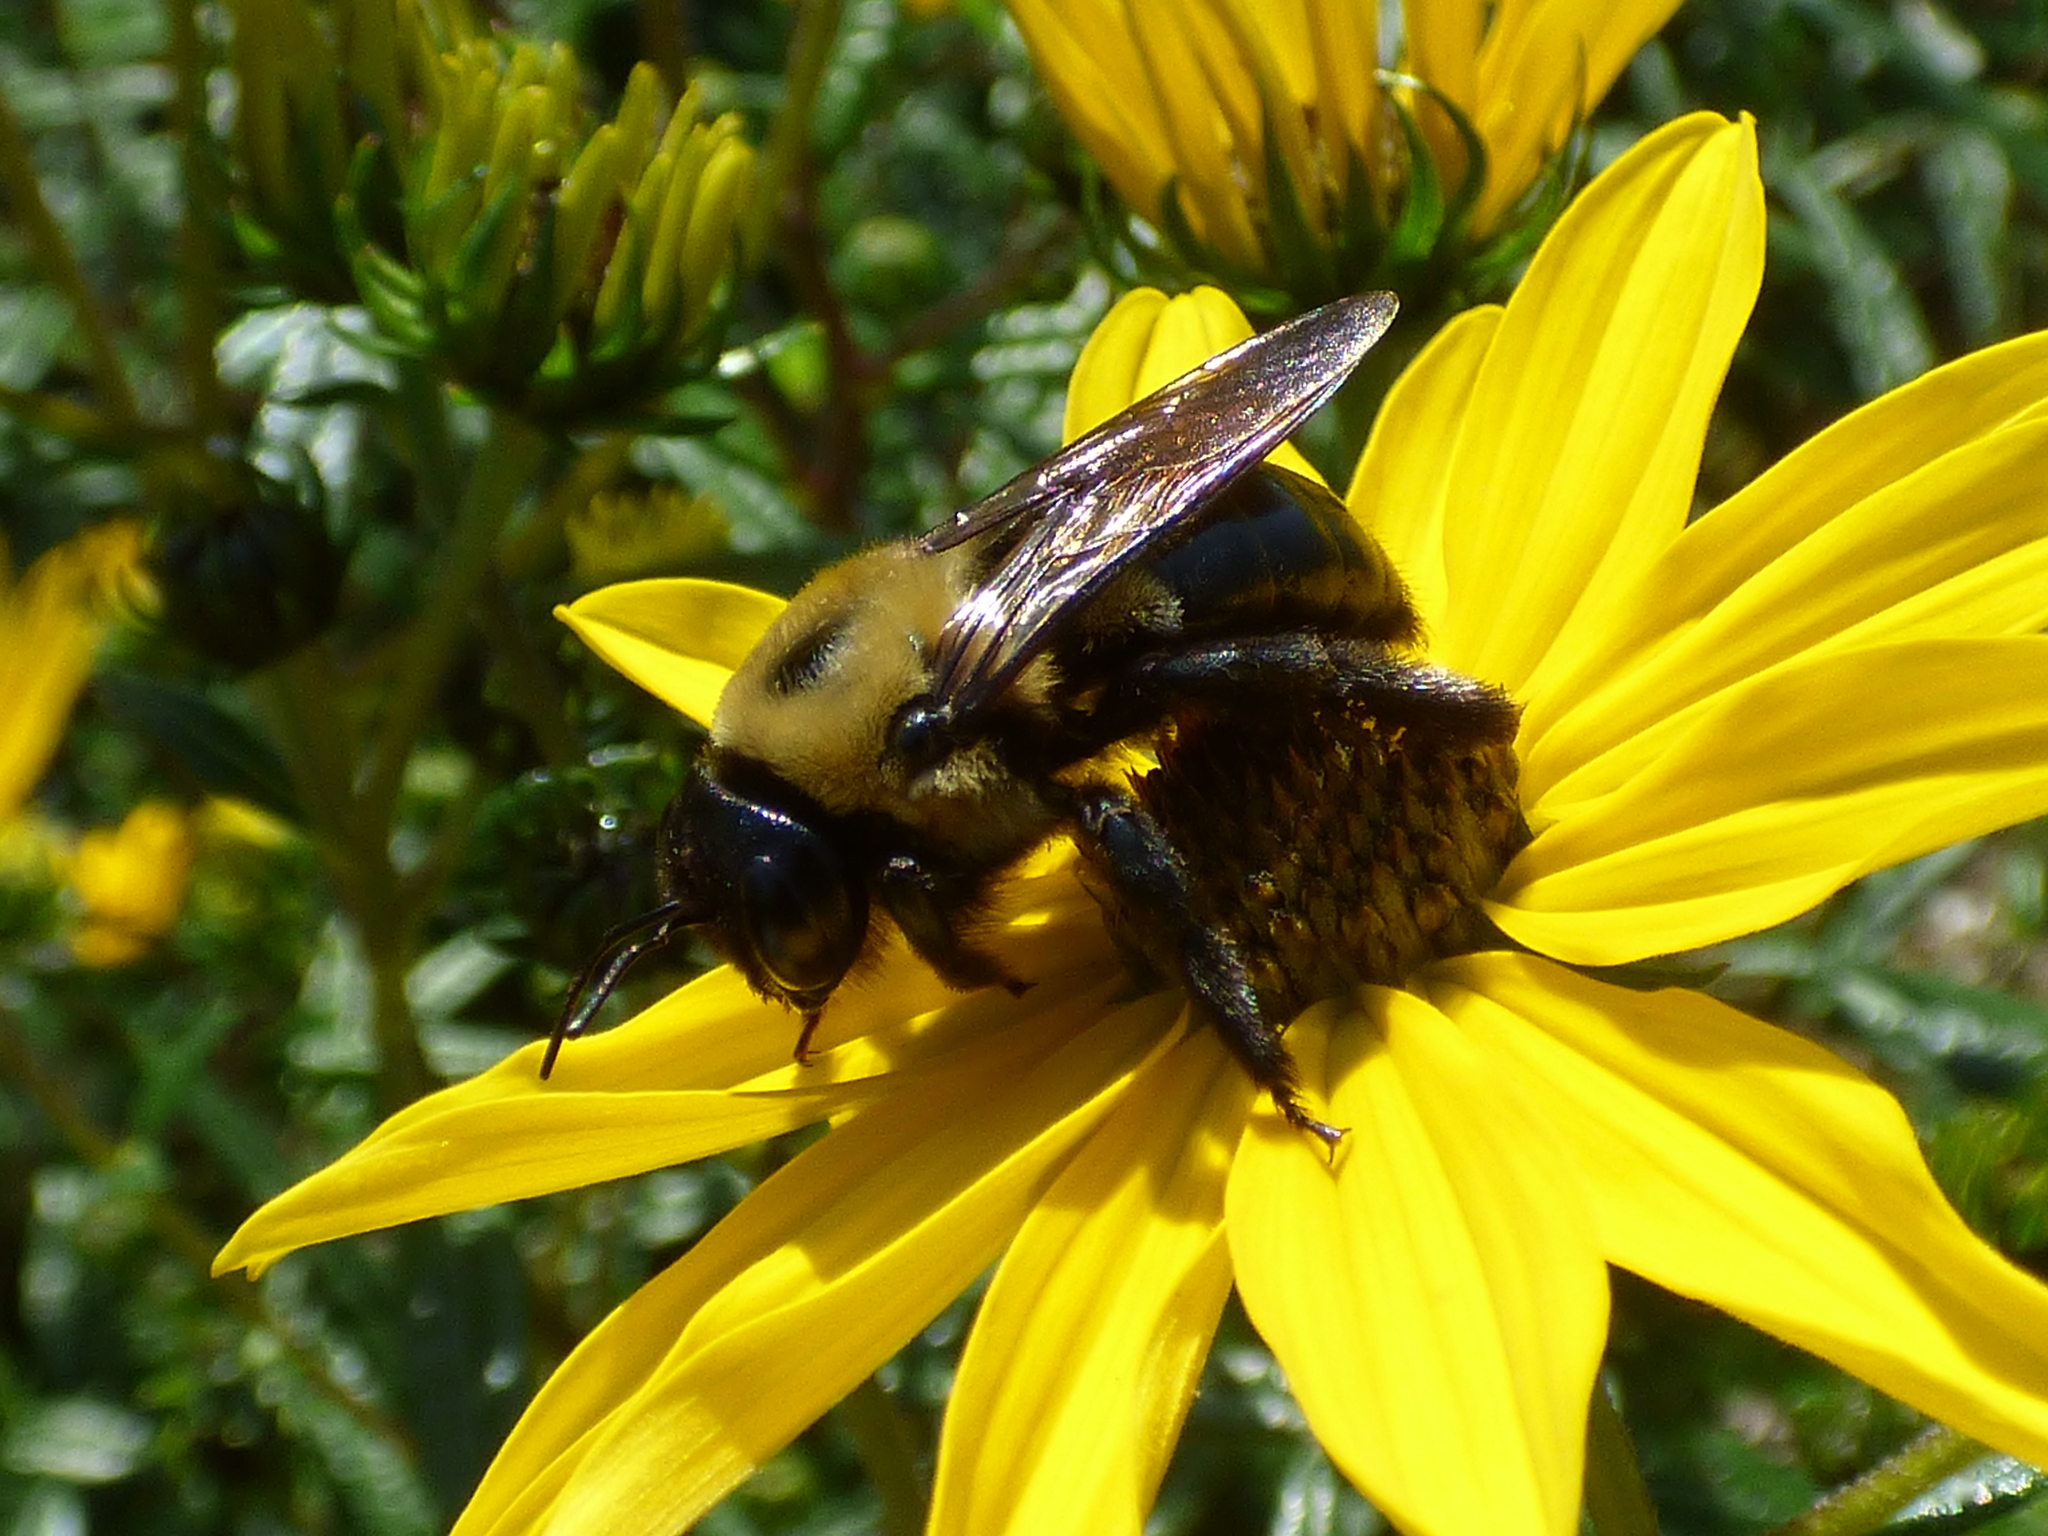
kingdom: Animalia
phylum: Arthropoda
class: Insecta
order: Hymenoptera
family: Apidae
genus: Xylocopa
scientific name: Xylocopa virginica
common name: Carpenter bee
